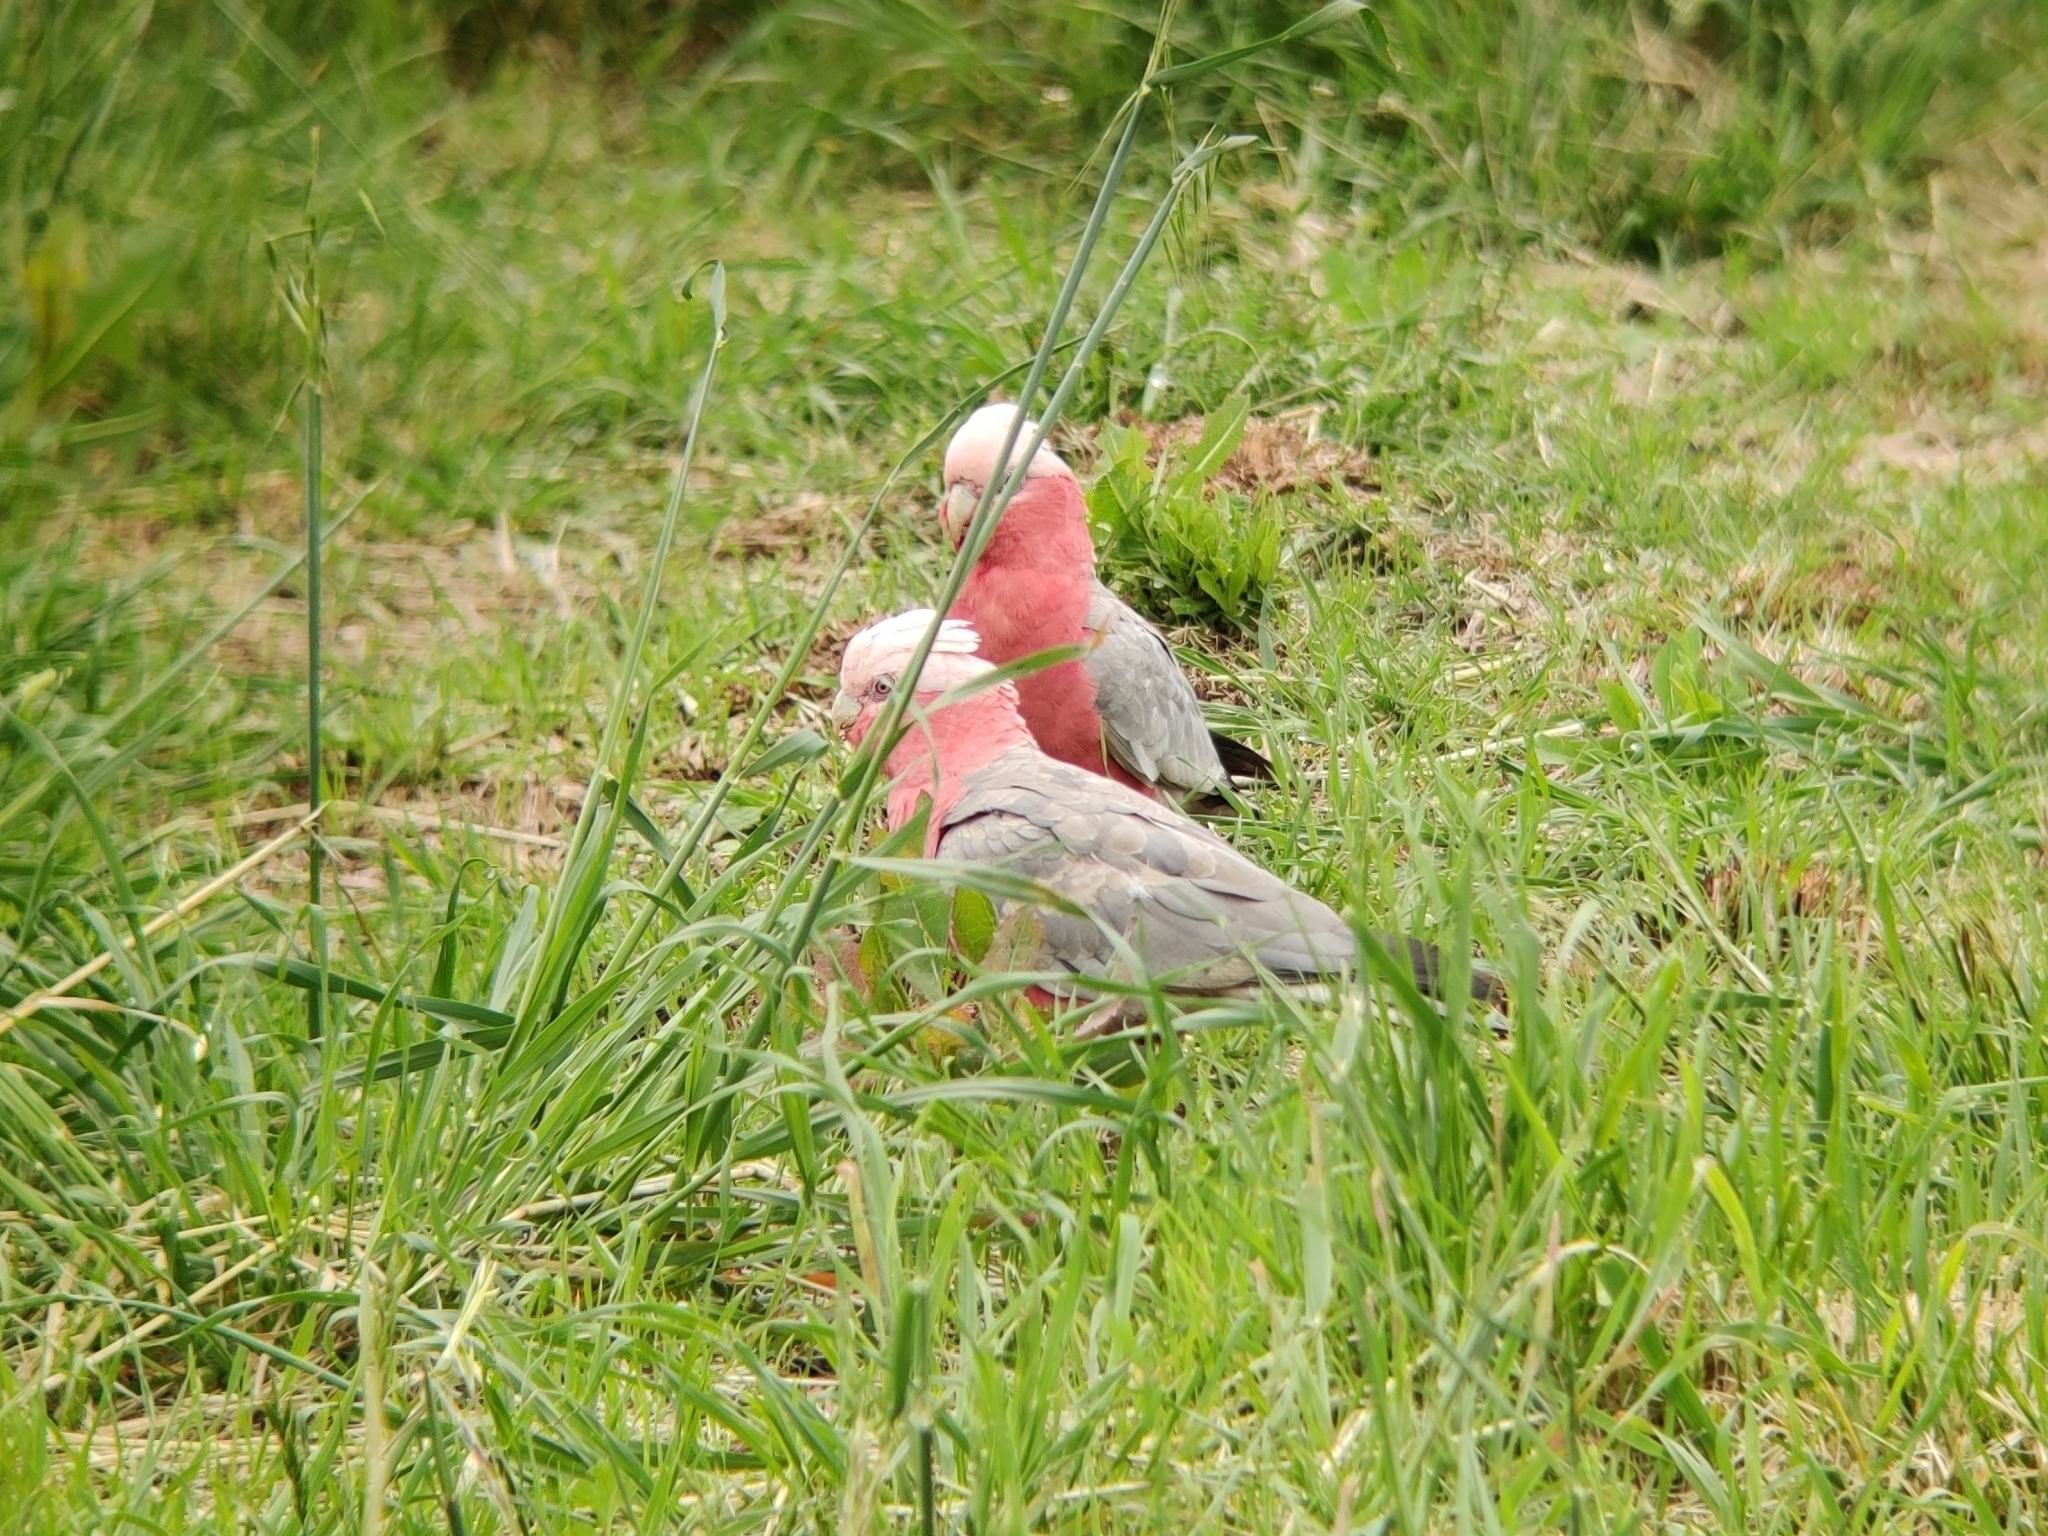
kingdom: Animalia
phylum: Chordata
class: Aves
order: Psittaciformes
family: Psittacidae
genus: Eolophus
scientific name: Eolophus roseicapilla
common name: Galah
